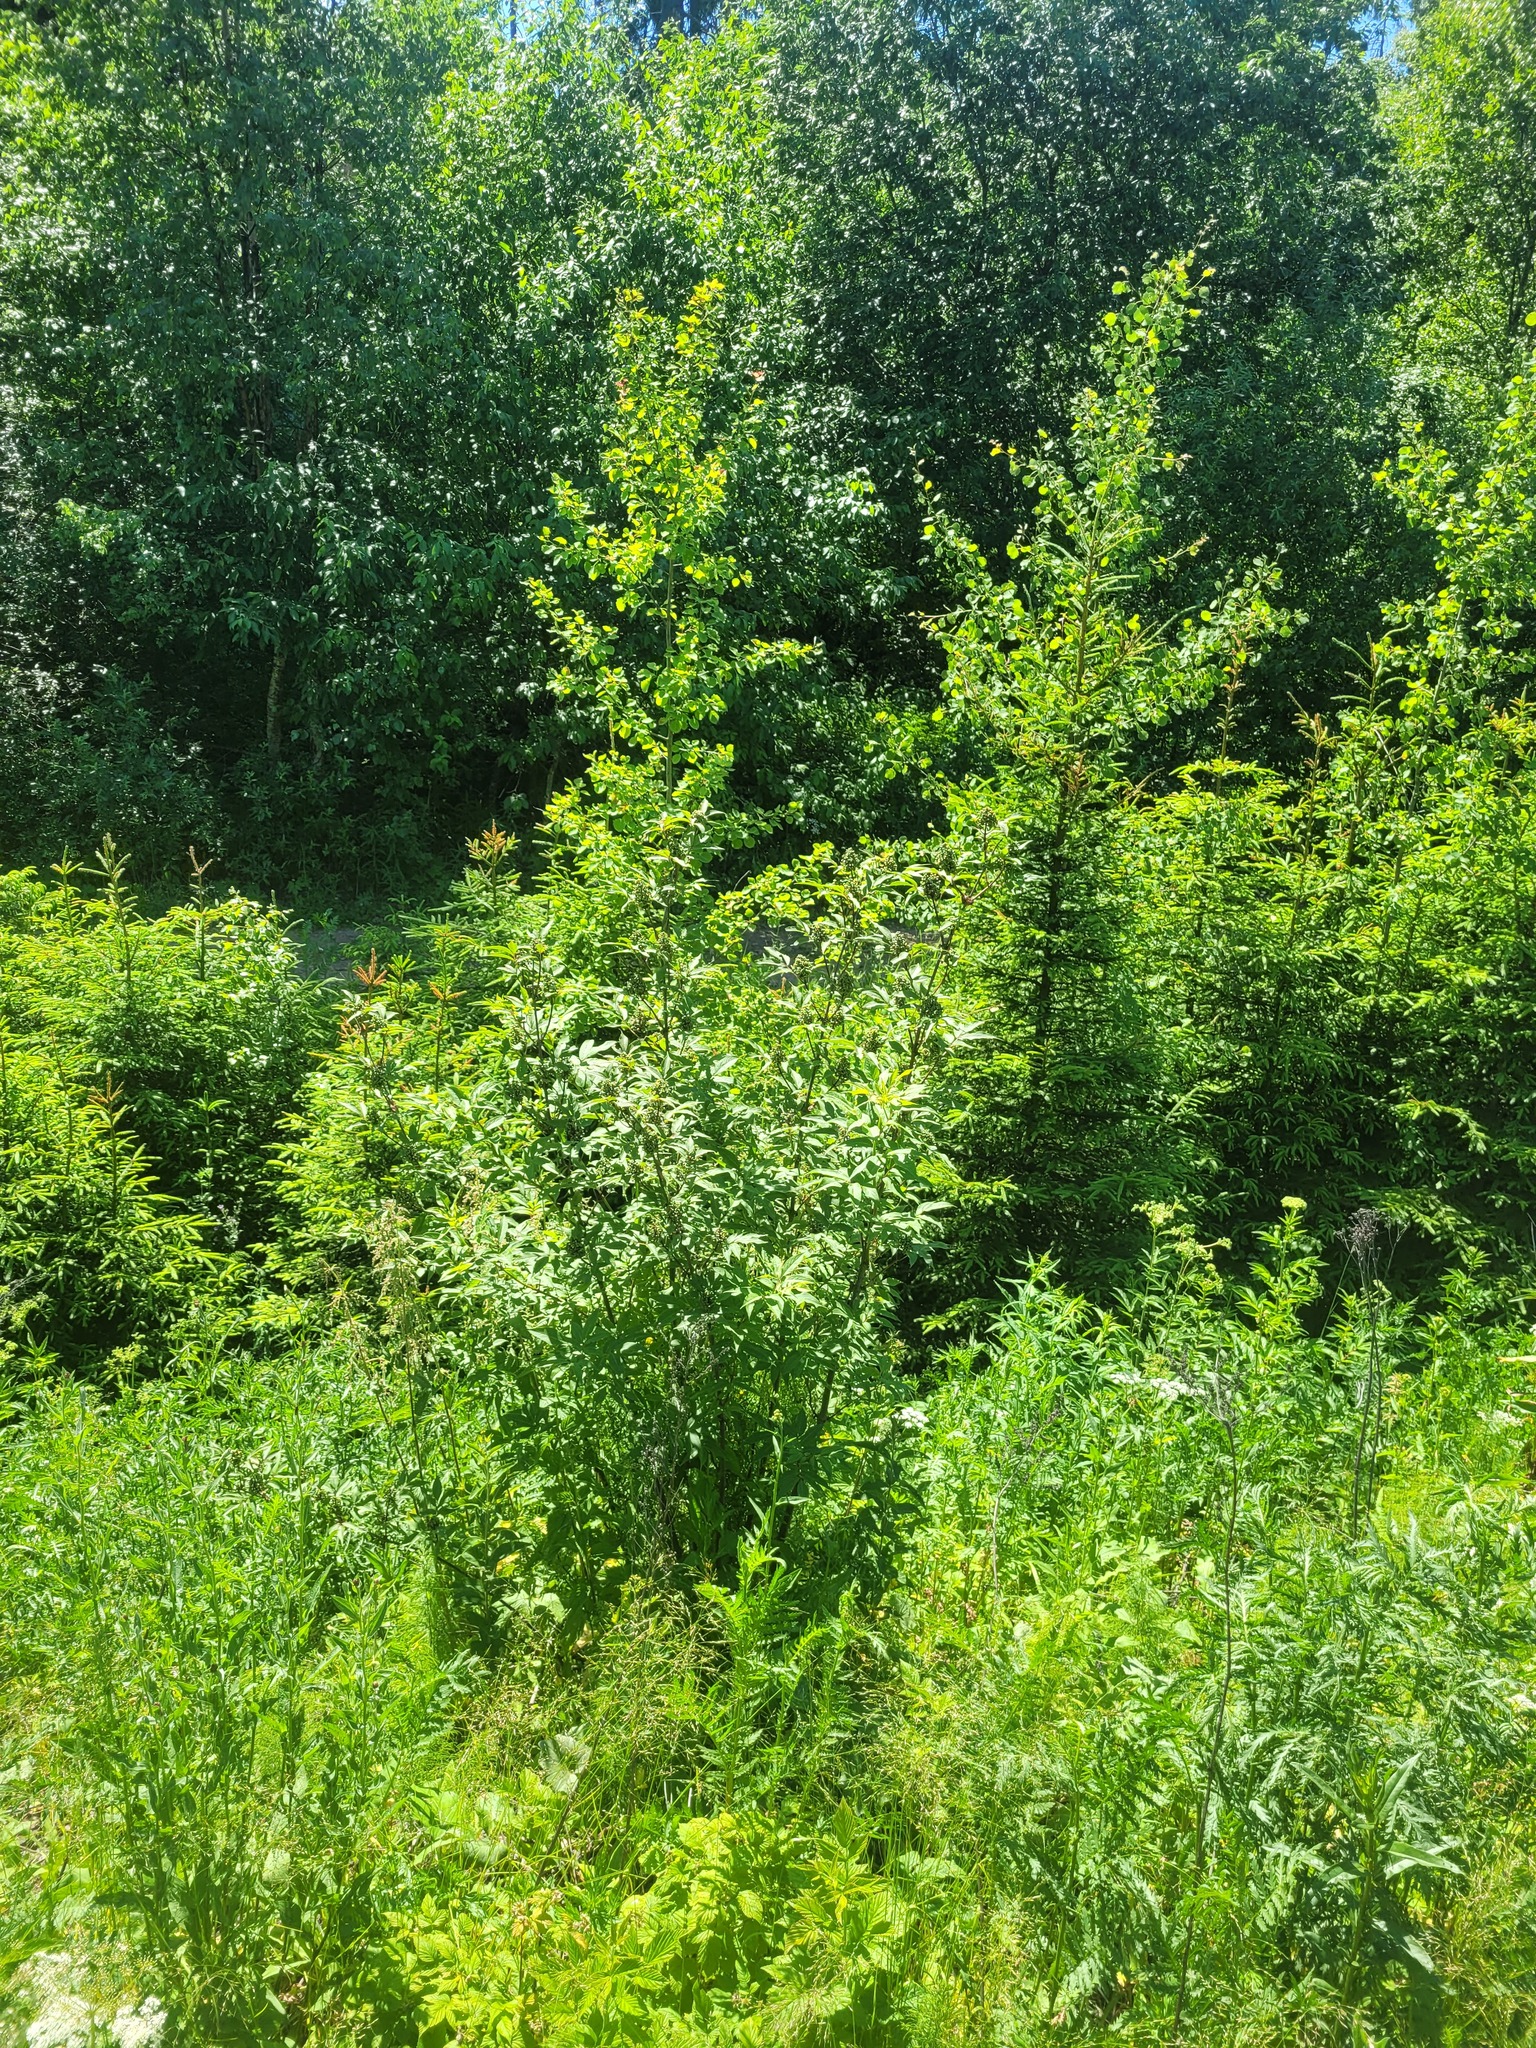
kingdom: Plantae
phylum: Tracheophyta
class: Magnoliopsida
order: Dipsacales
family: Viburnaceae
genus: Sambucus
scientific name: Sambucus racemosa
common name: Red-berried elder
